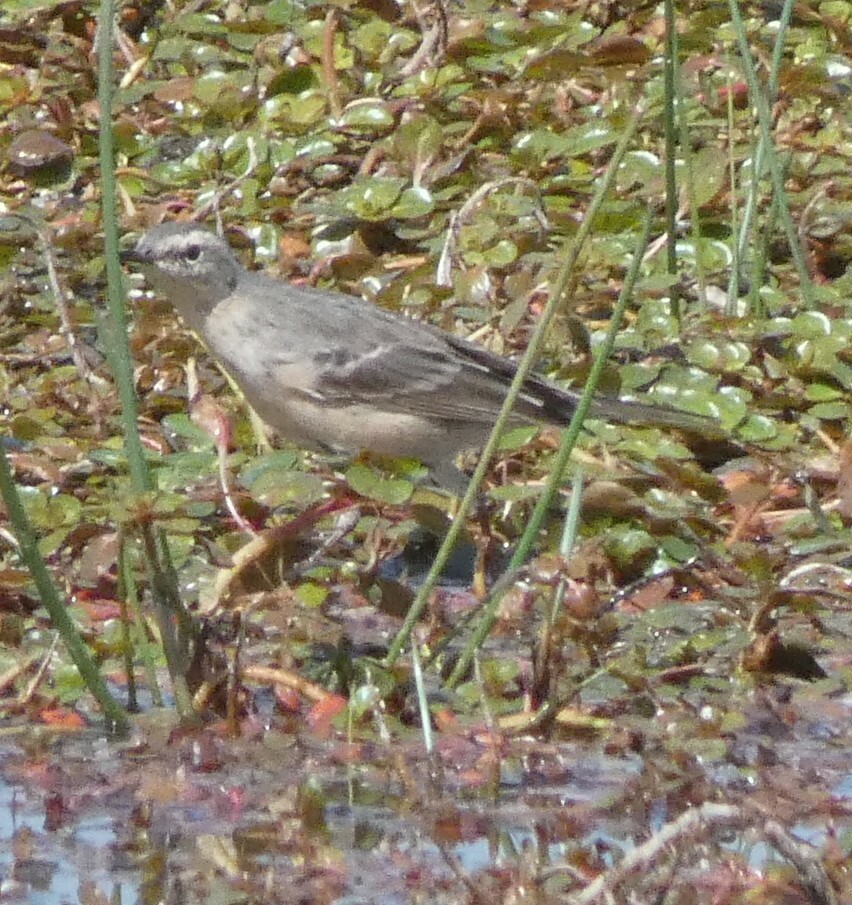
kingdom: Animalia
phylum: Chordata
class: Aves
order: Passeriformes
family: Motacillidae
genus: Anthus
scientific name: Anthus spinoletta
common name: Water pipit
